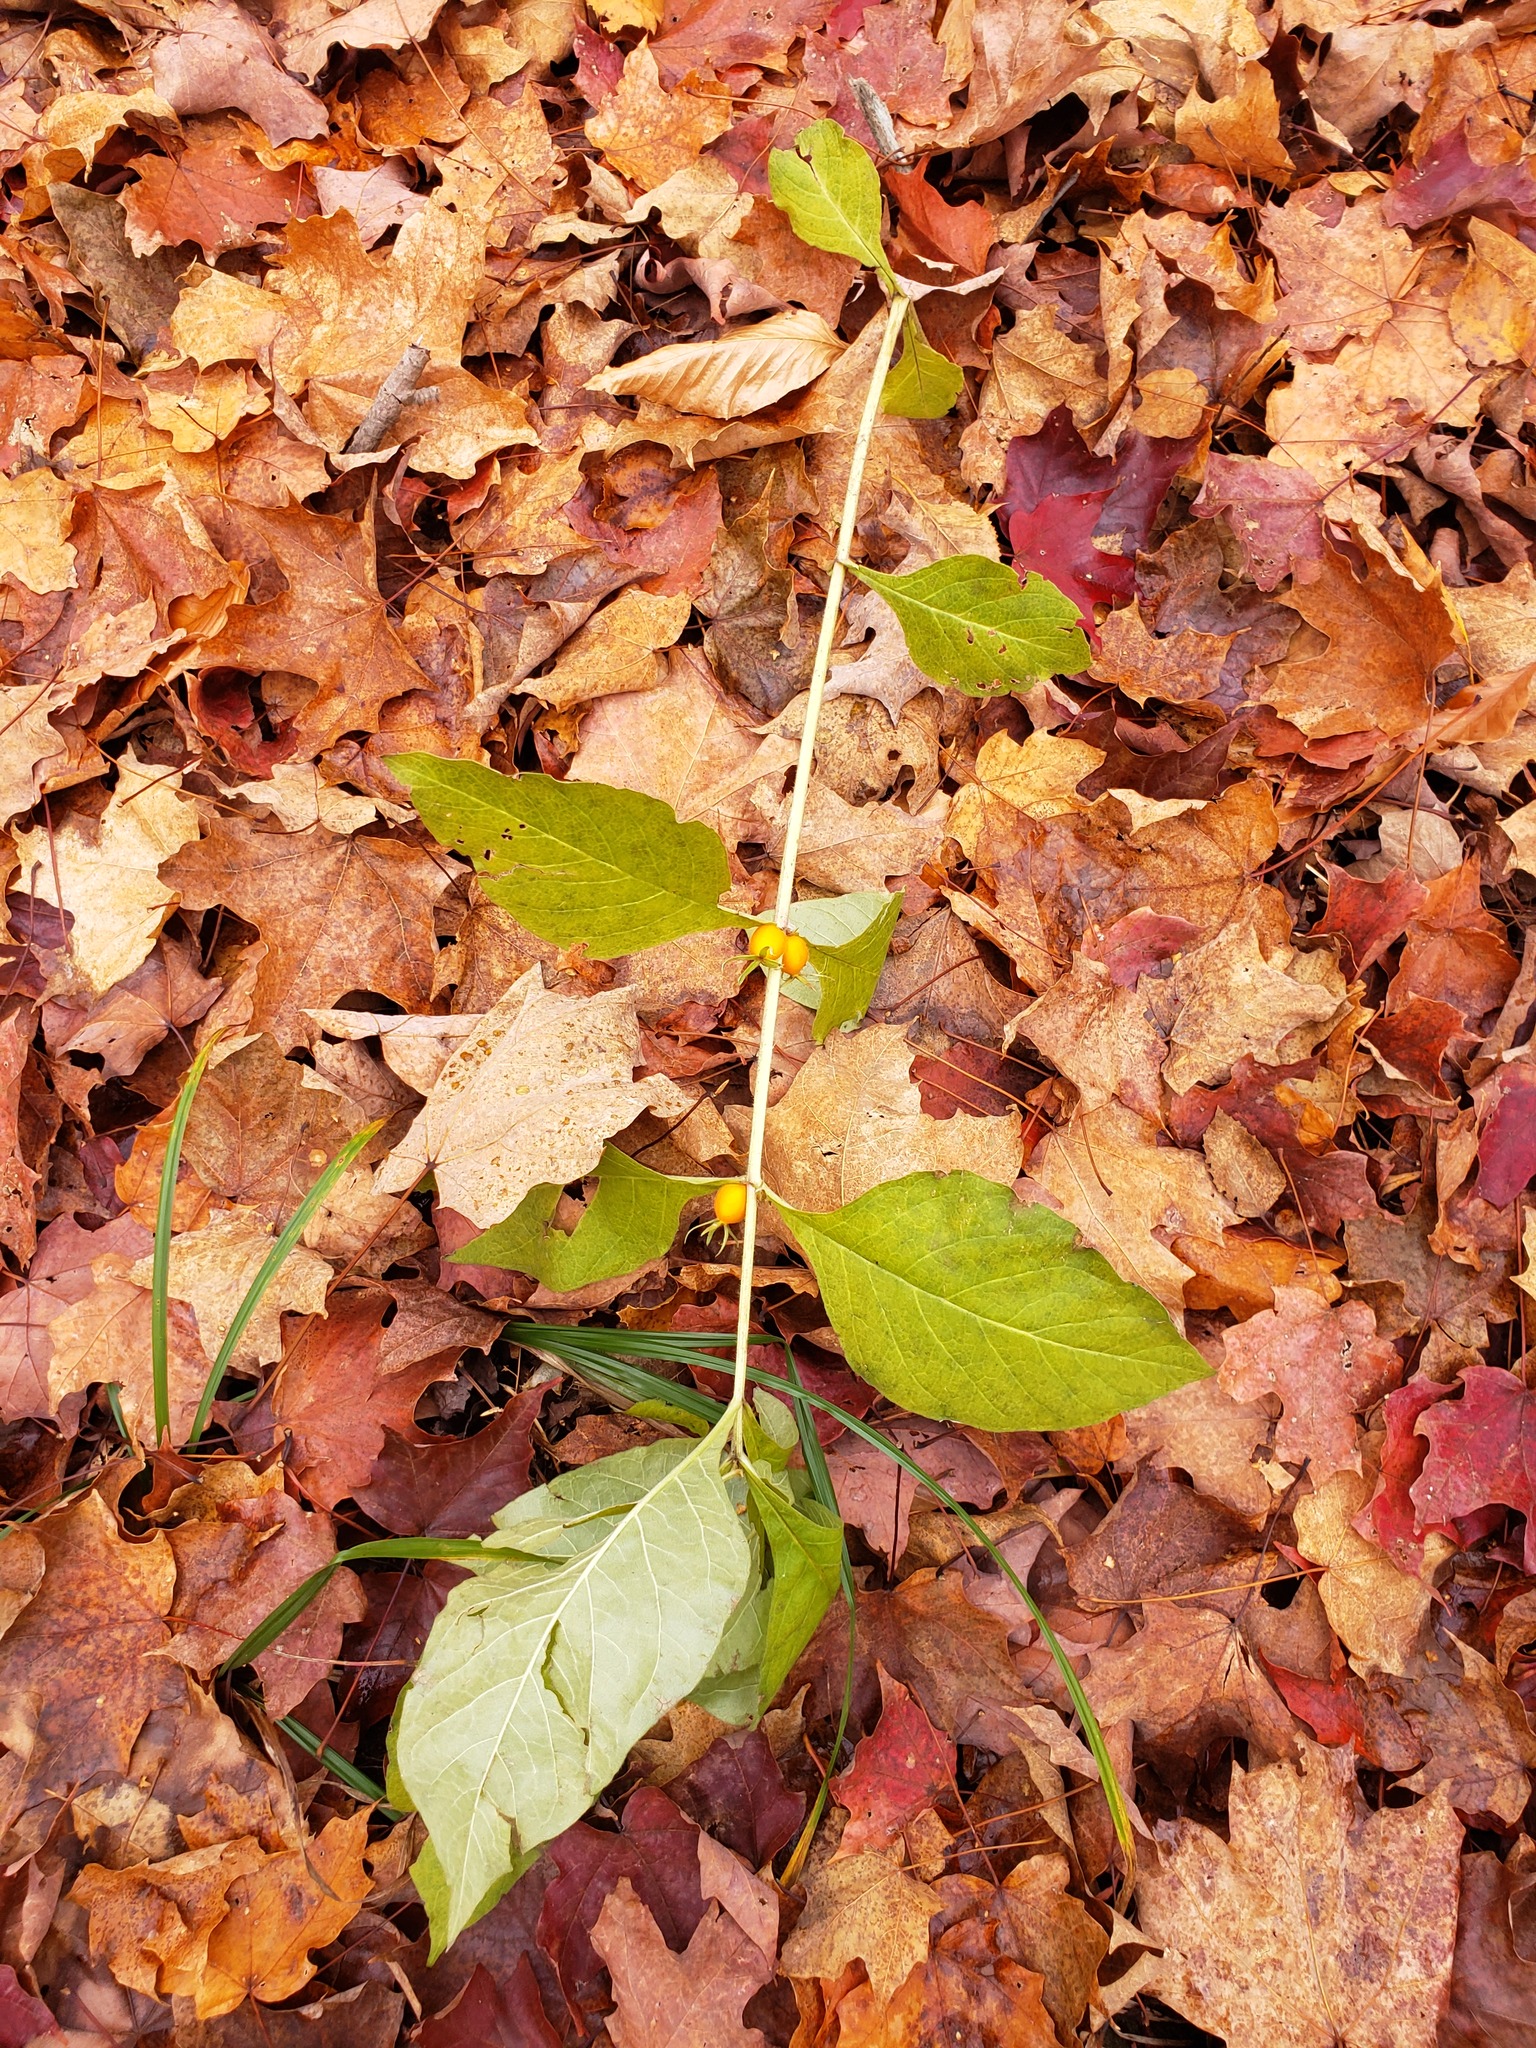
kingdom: Plantae
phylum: Tracheophyta
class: Magnoliopsida
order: Dipsacales
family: Caprifoliaceae
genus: Triosteum
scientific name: Triosteum aurantiacum
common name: Coffee tinker's-weed
